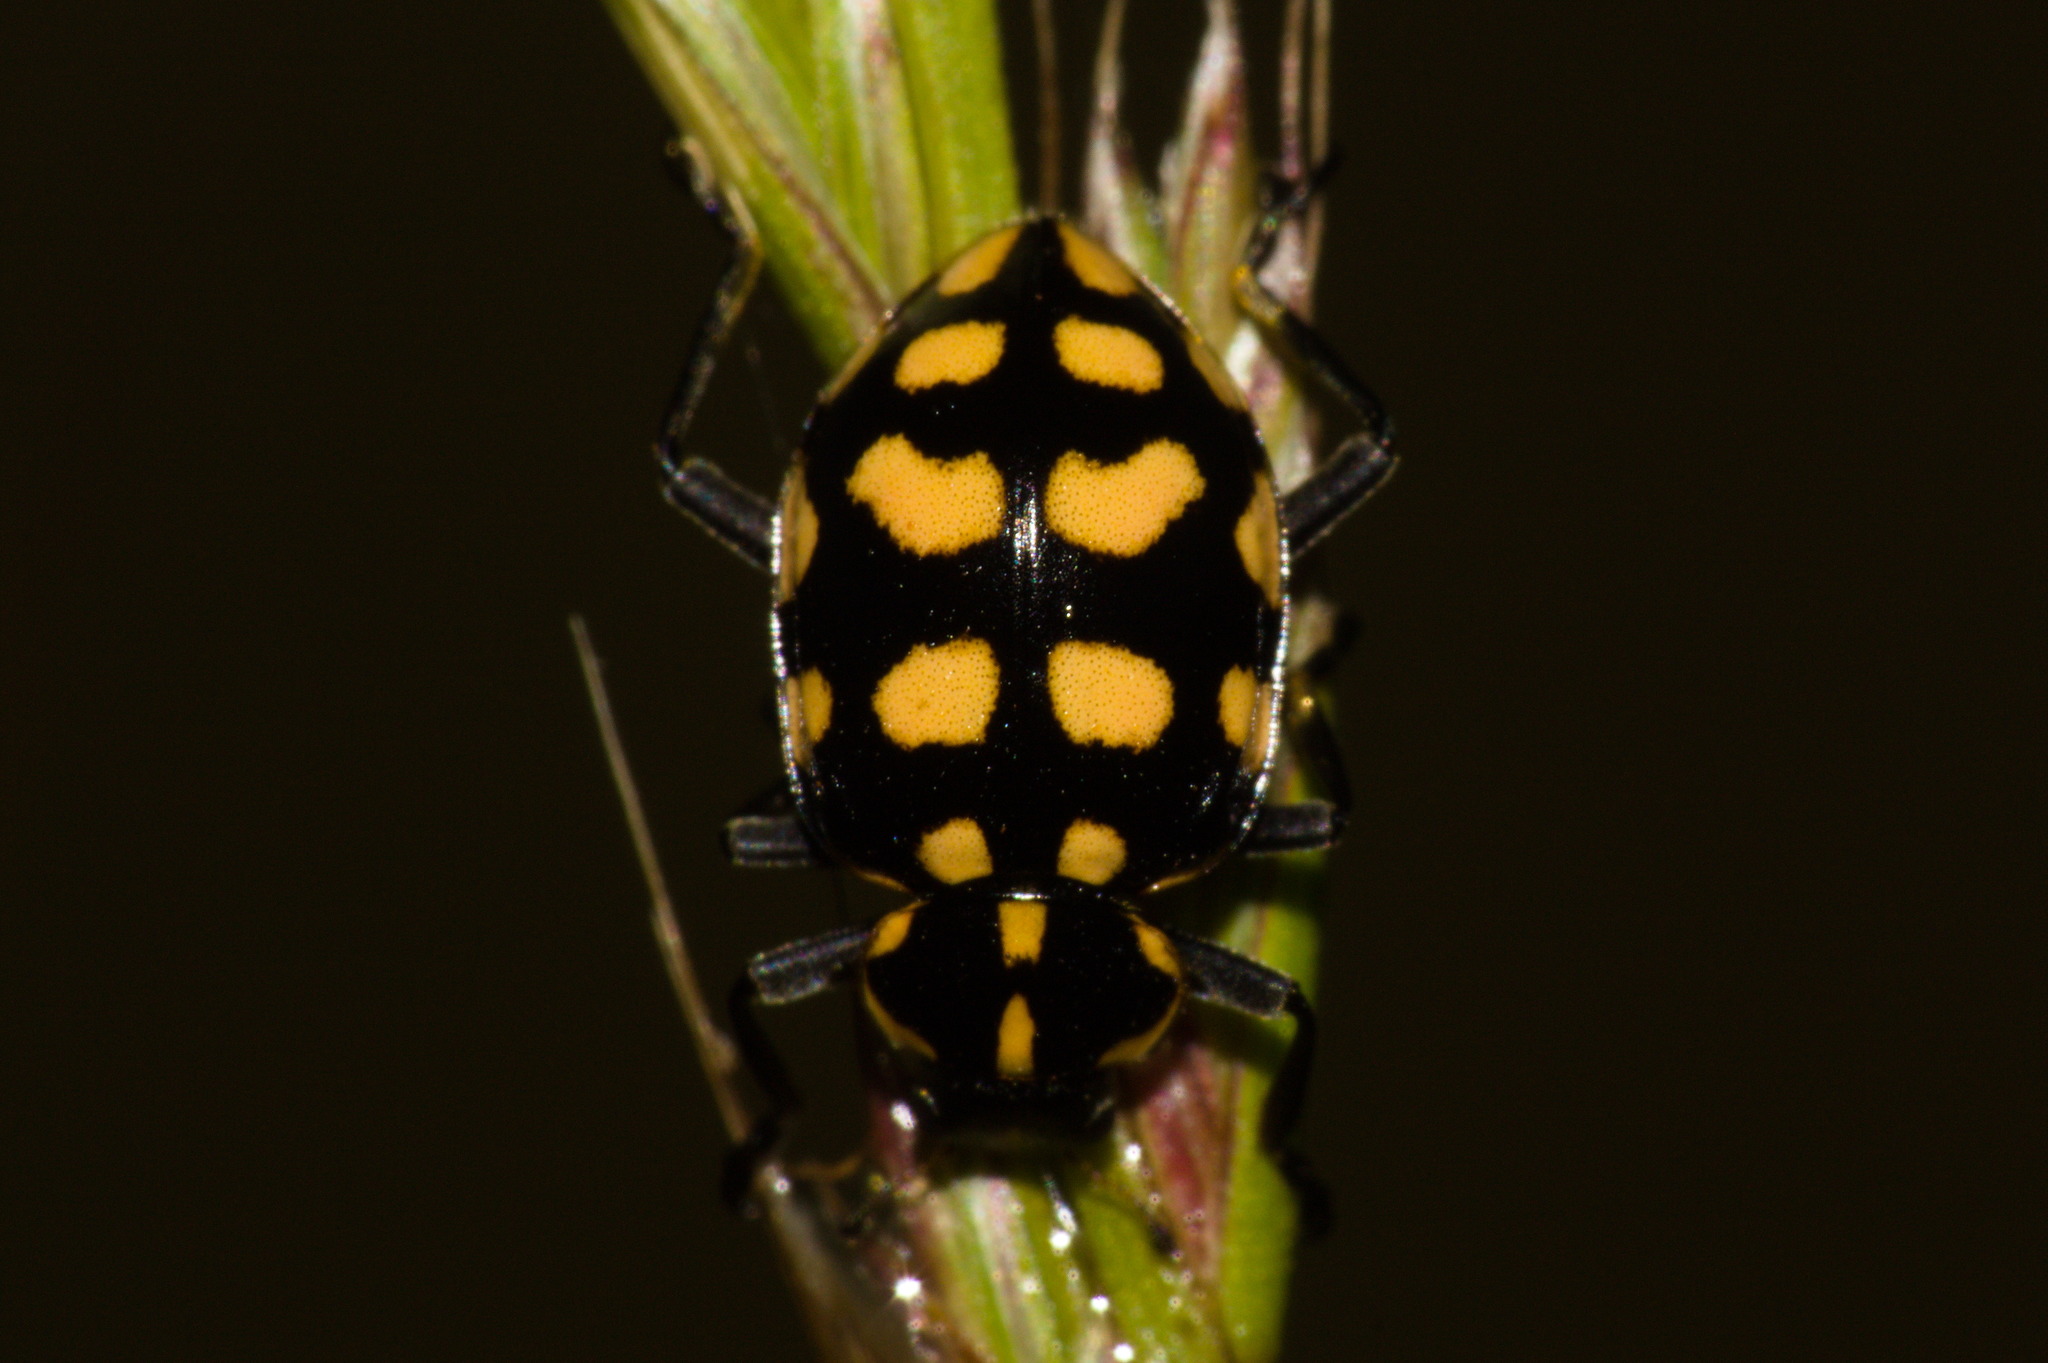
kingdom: Animalia
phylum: Arthropoda
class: Insecta
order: Coleoptera
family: Coccinellidae
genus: Coleomegilla
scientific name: Coleomegilla
